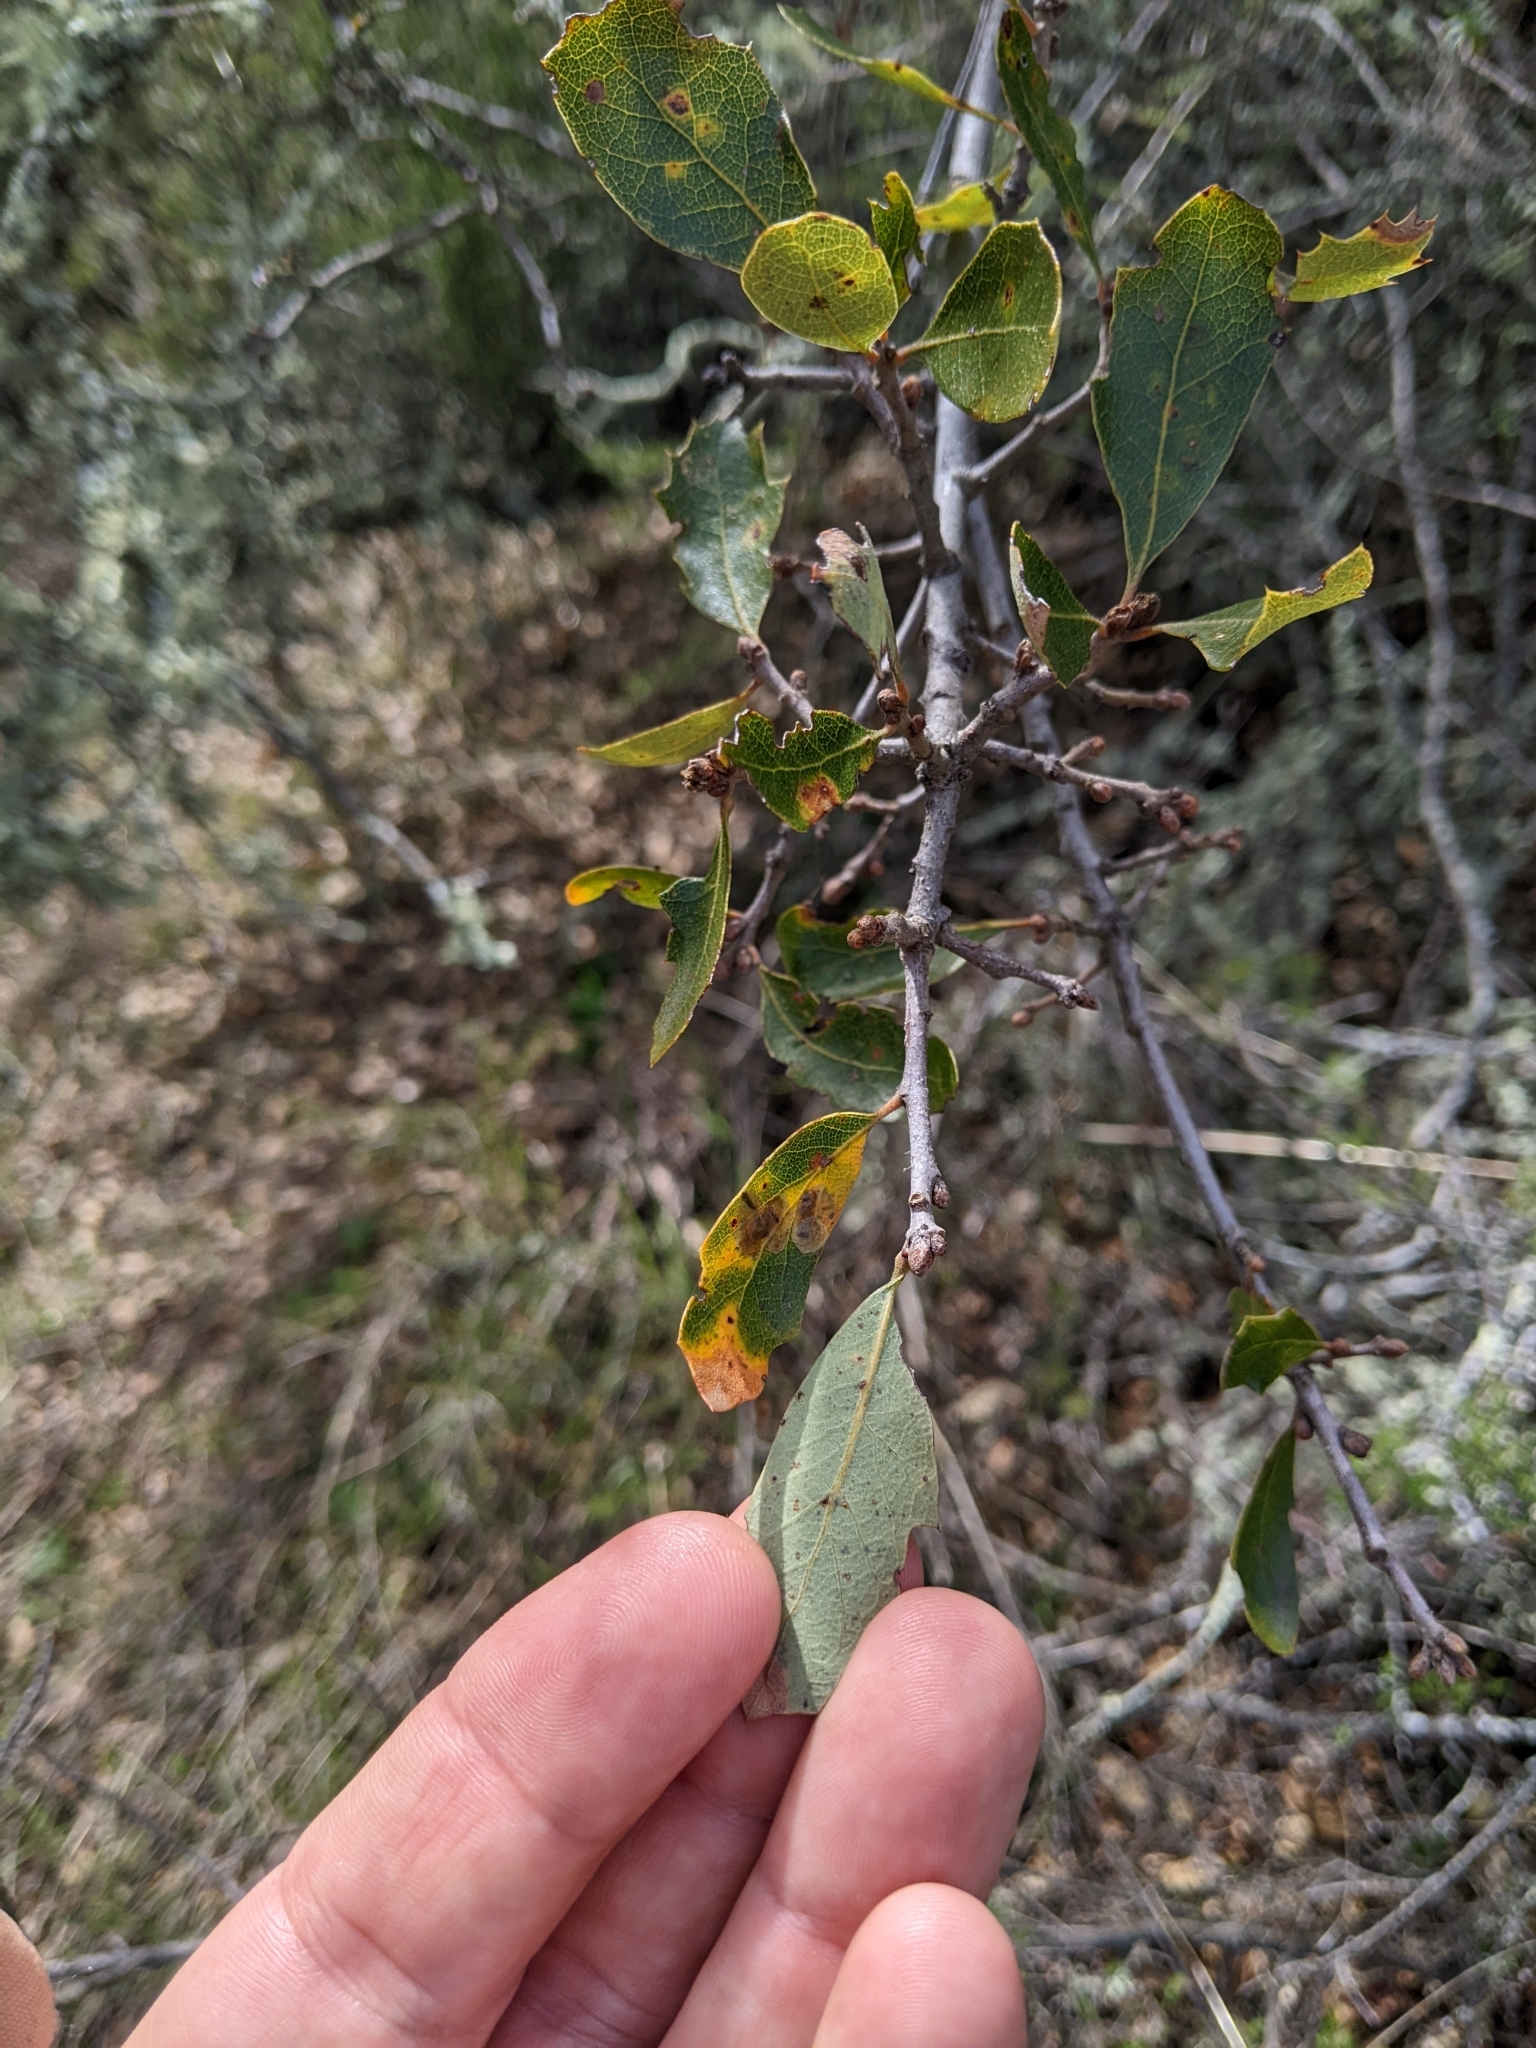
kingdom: Plantae
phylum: Tracheophyta
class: Magnoliopsida
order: Fagales
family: Fagaceae
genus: Quercus
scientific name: Quercus berberidifolia
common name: California scrub oak
